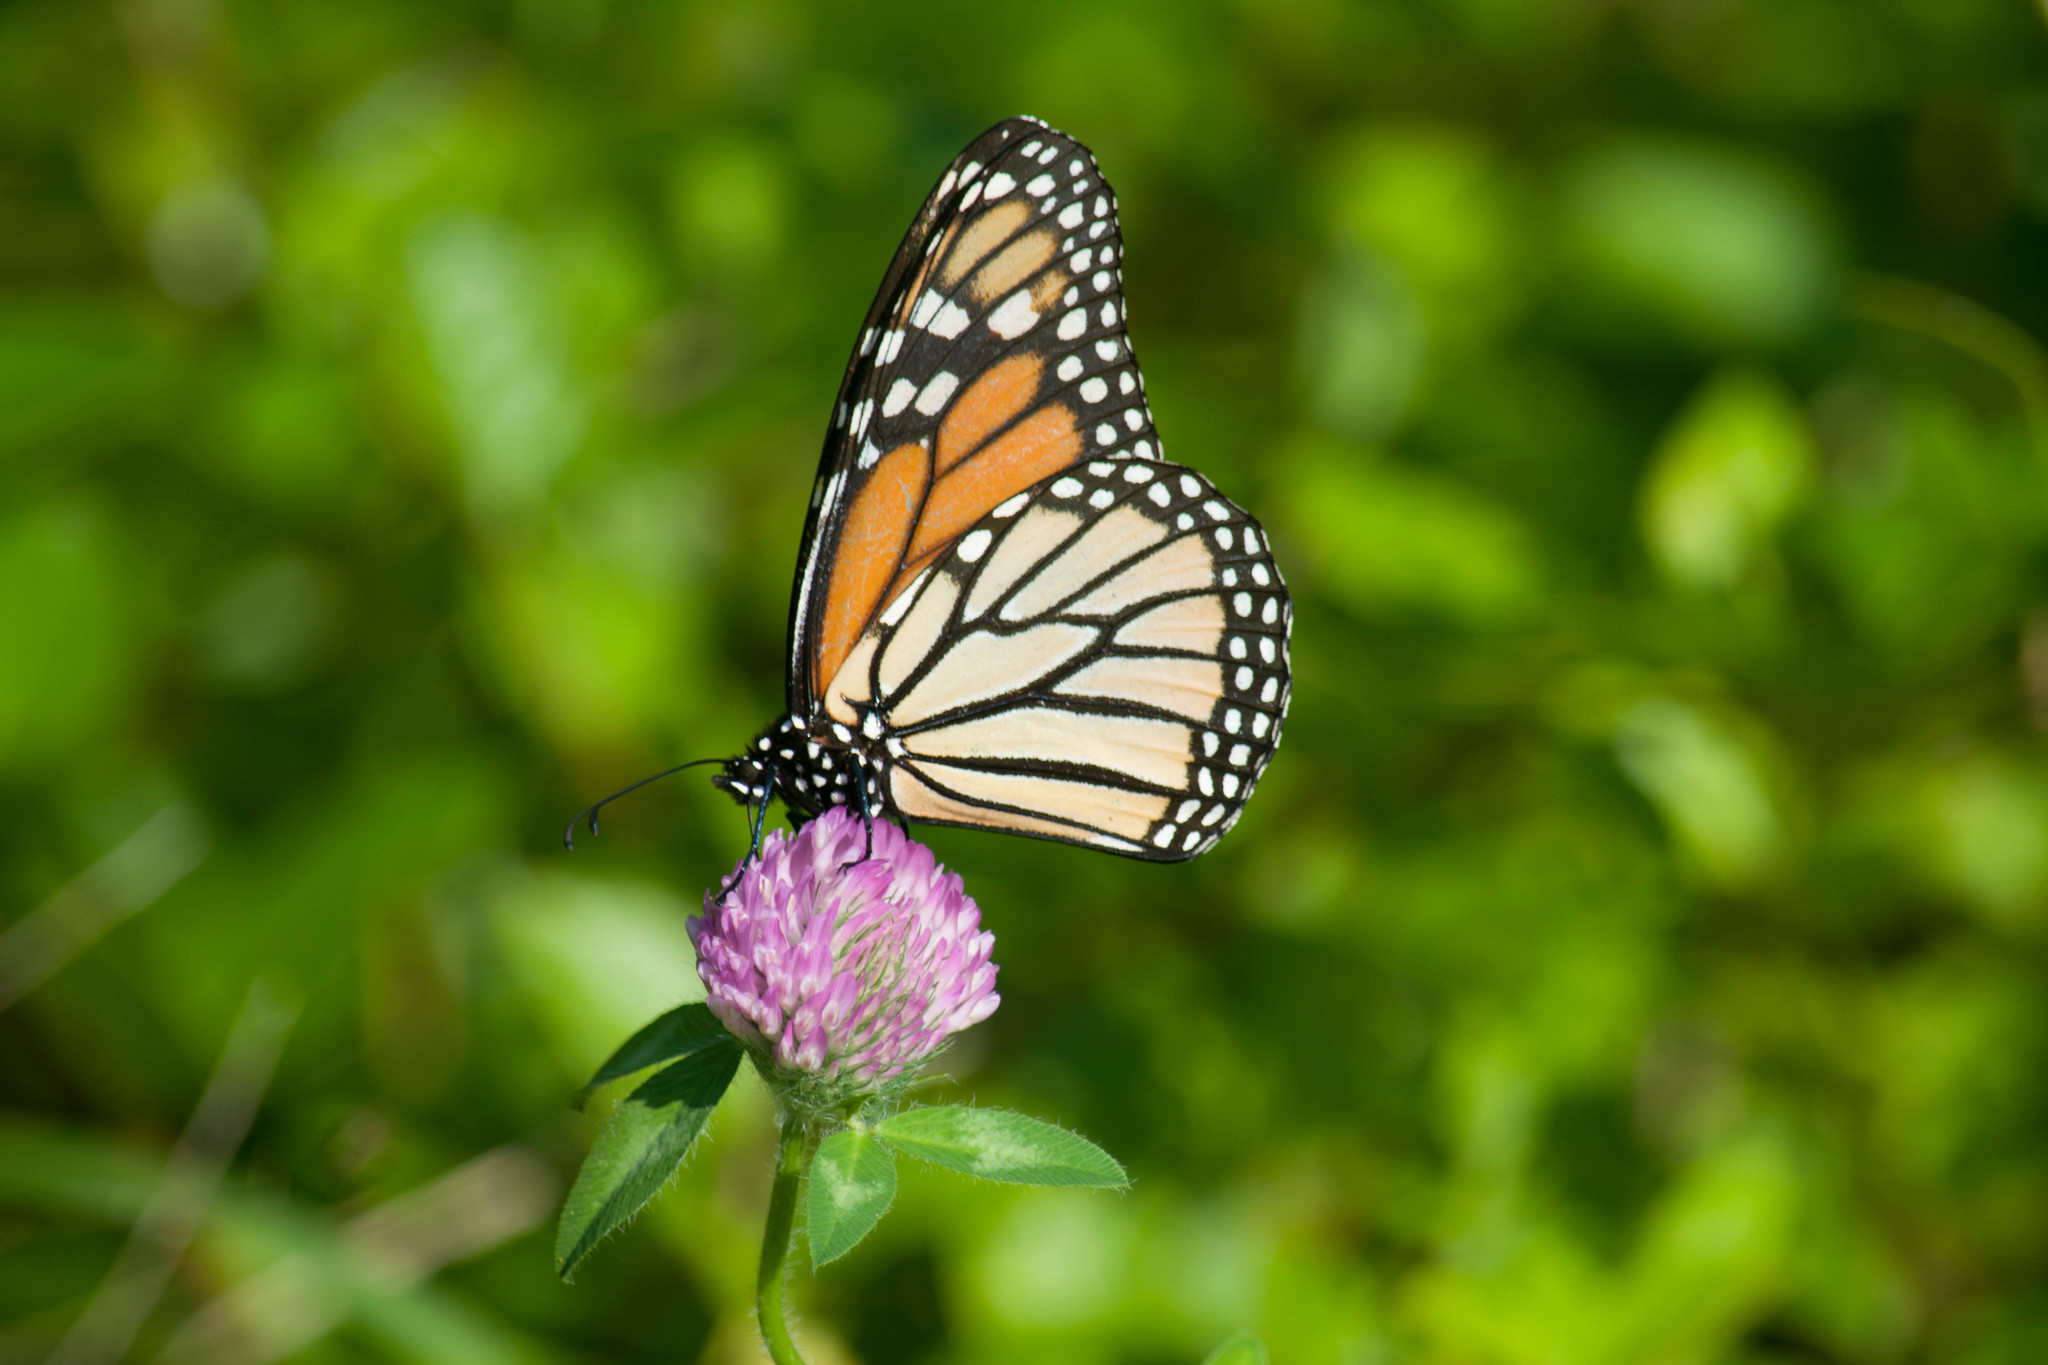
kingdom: Animalia
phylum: Arthropoda
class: Insecta
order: Lepidoptera
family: Nymphalidae
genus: Danaus
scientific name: Danaus plexippus
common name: Monarch
